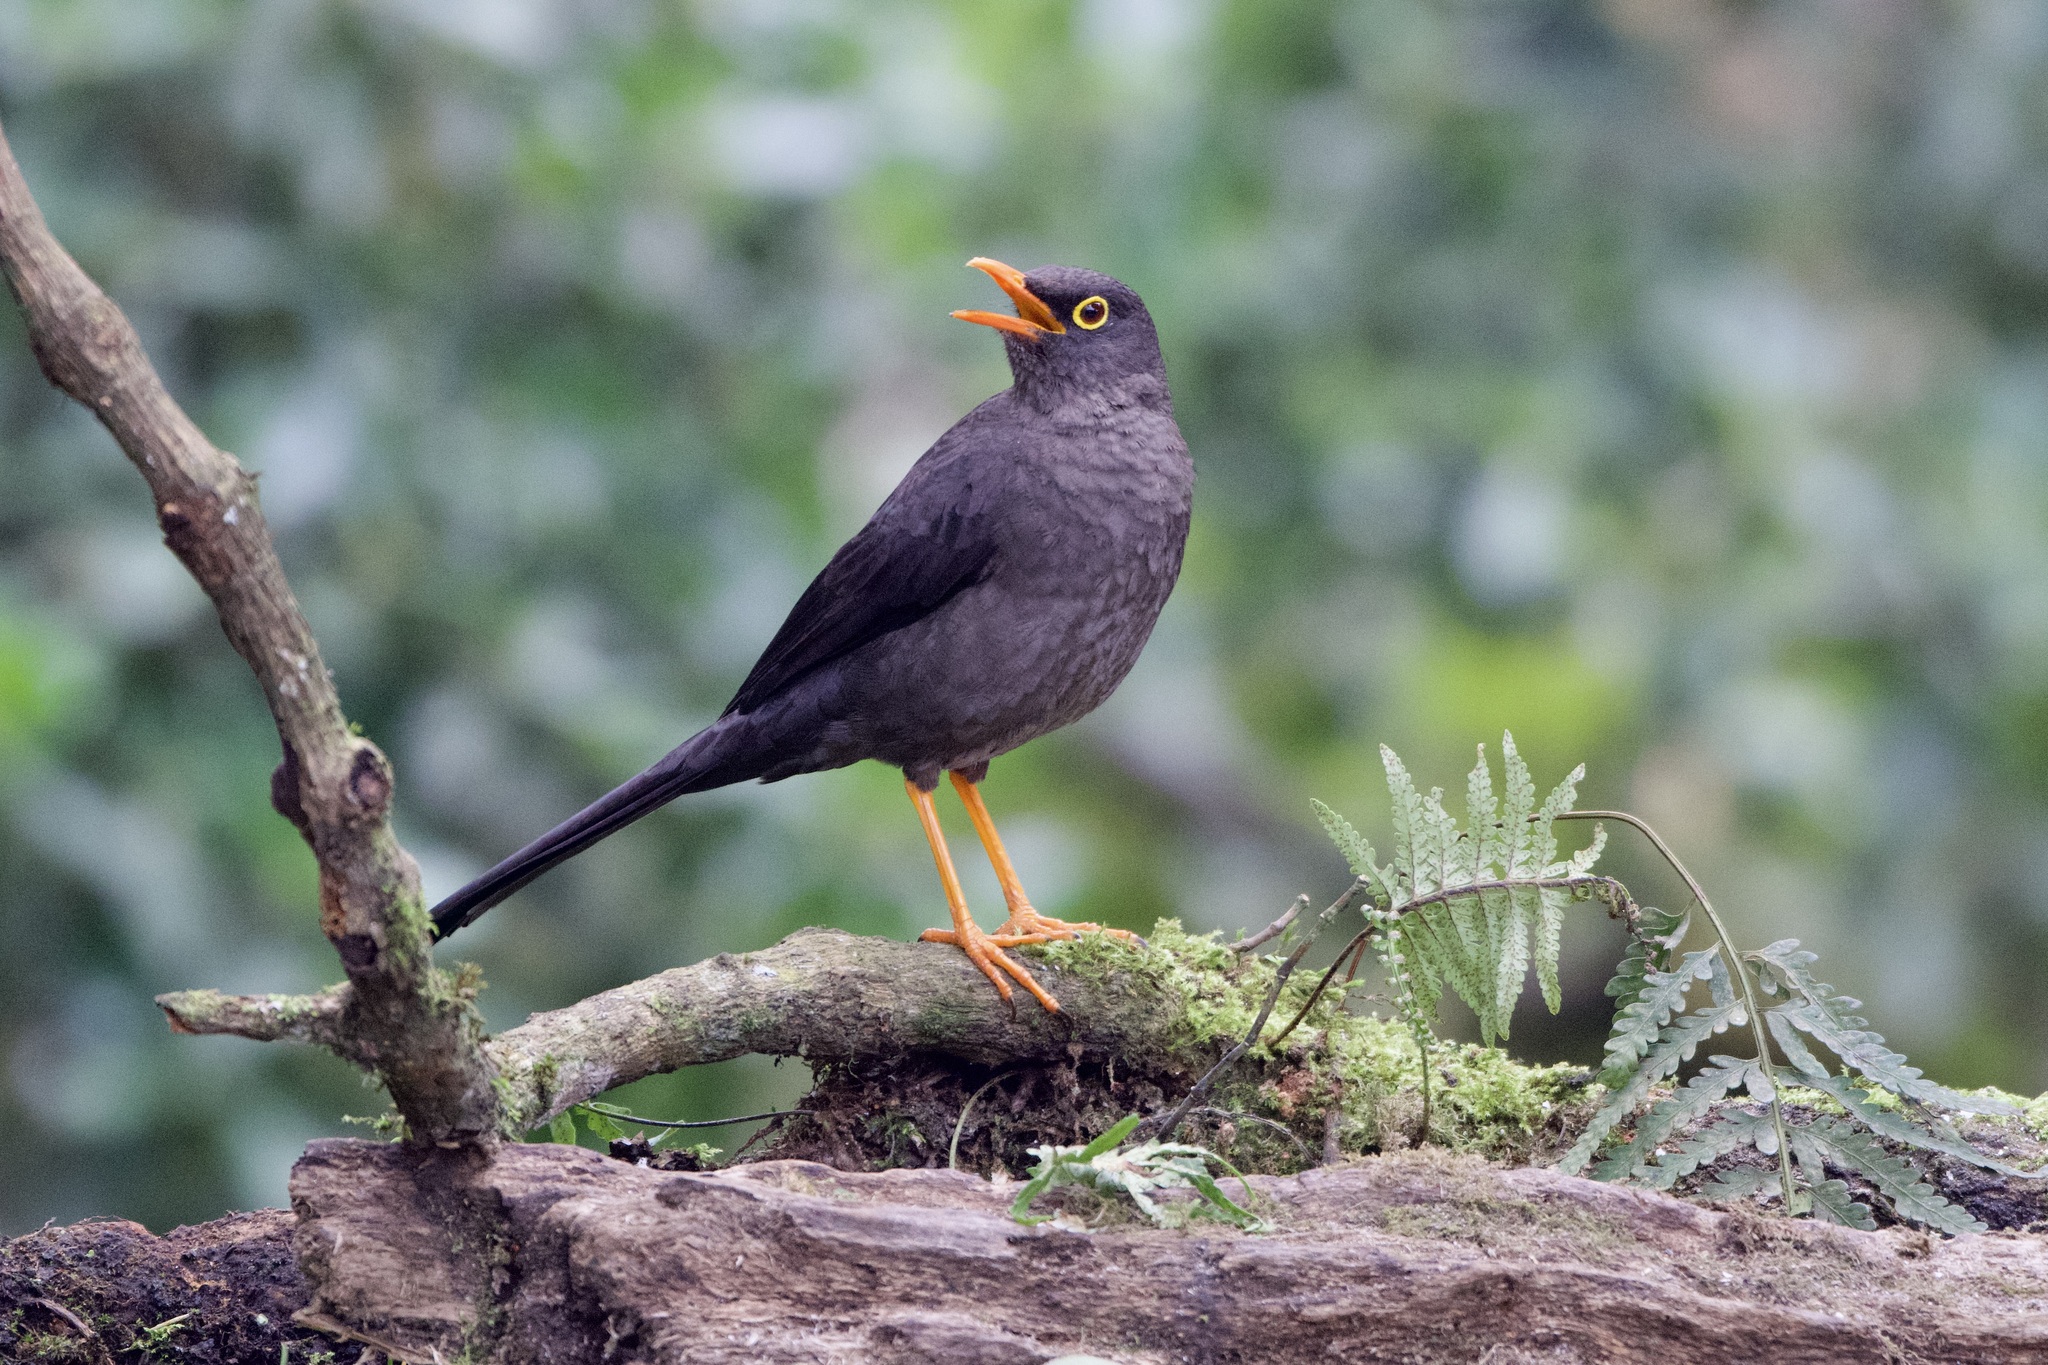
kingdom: Animalia
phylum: Chordata
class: Aves
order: Passeriformes
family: Turdidae
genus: Turdus
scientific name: Turdus fuscater
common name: Great thrush
